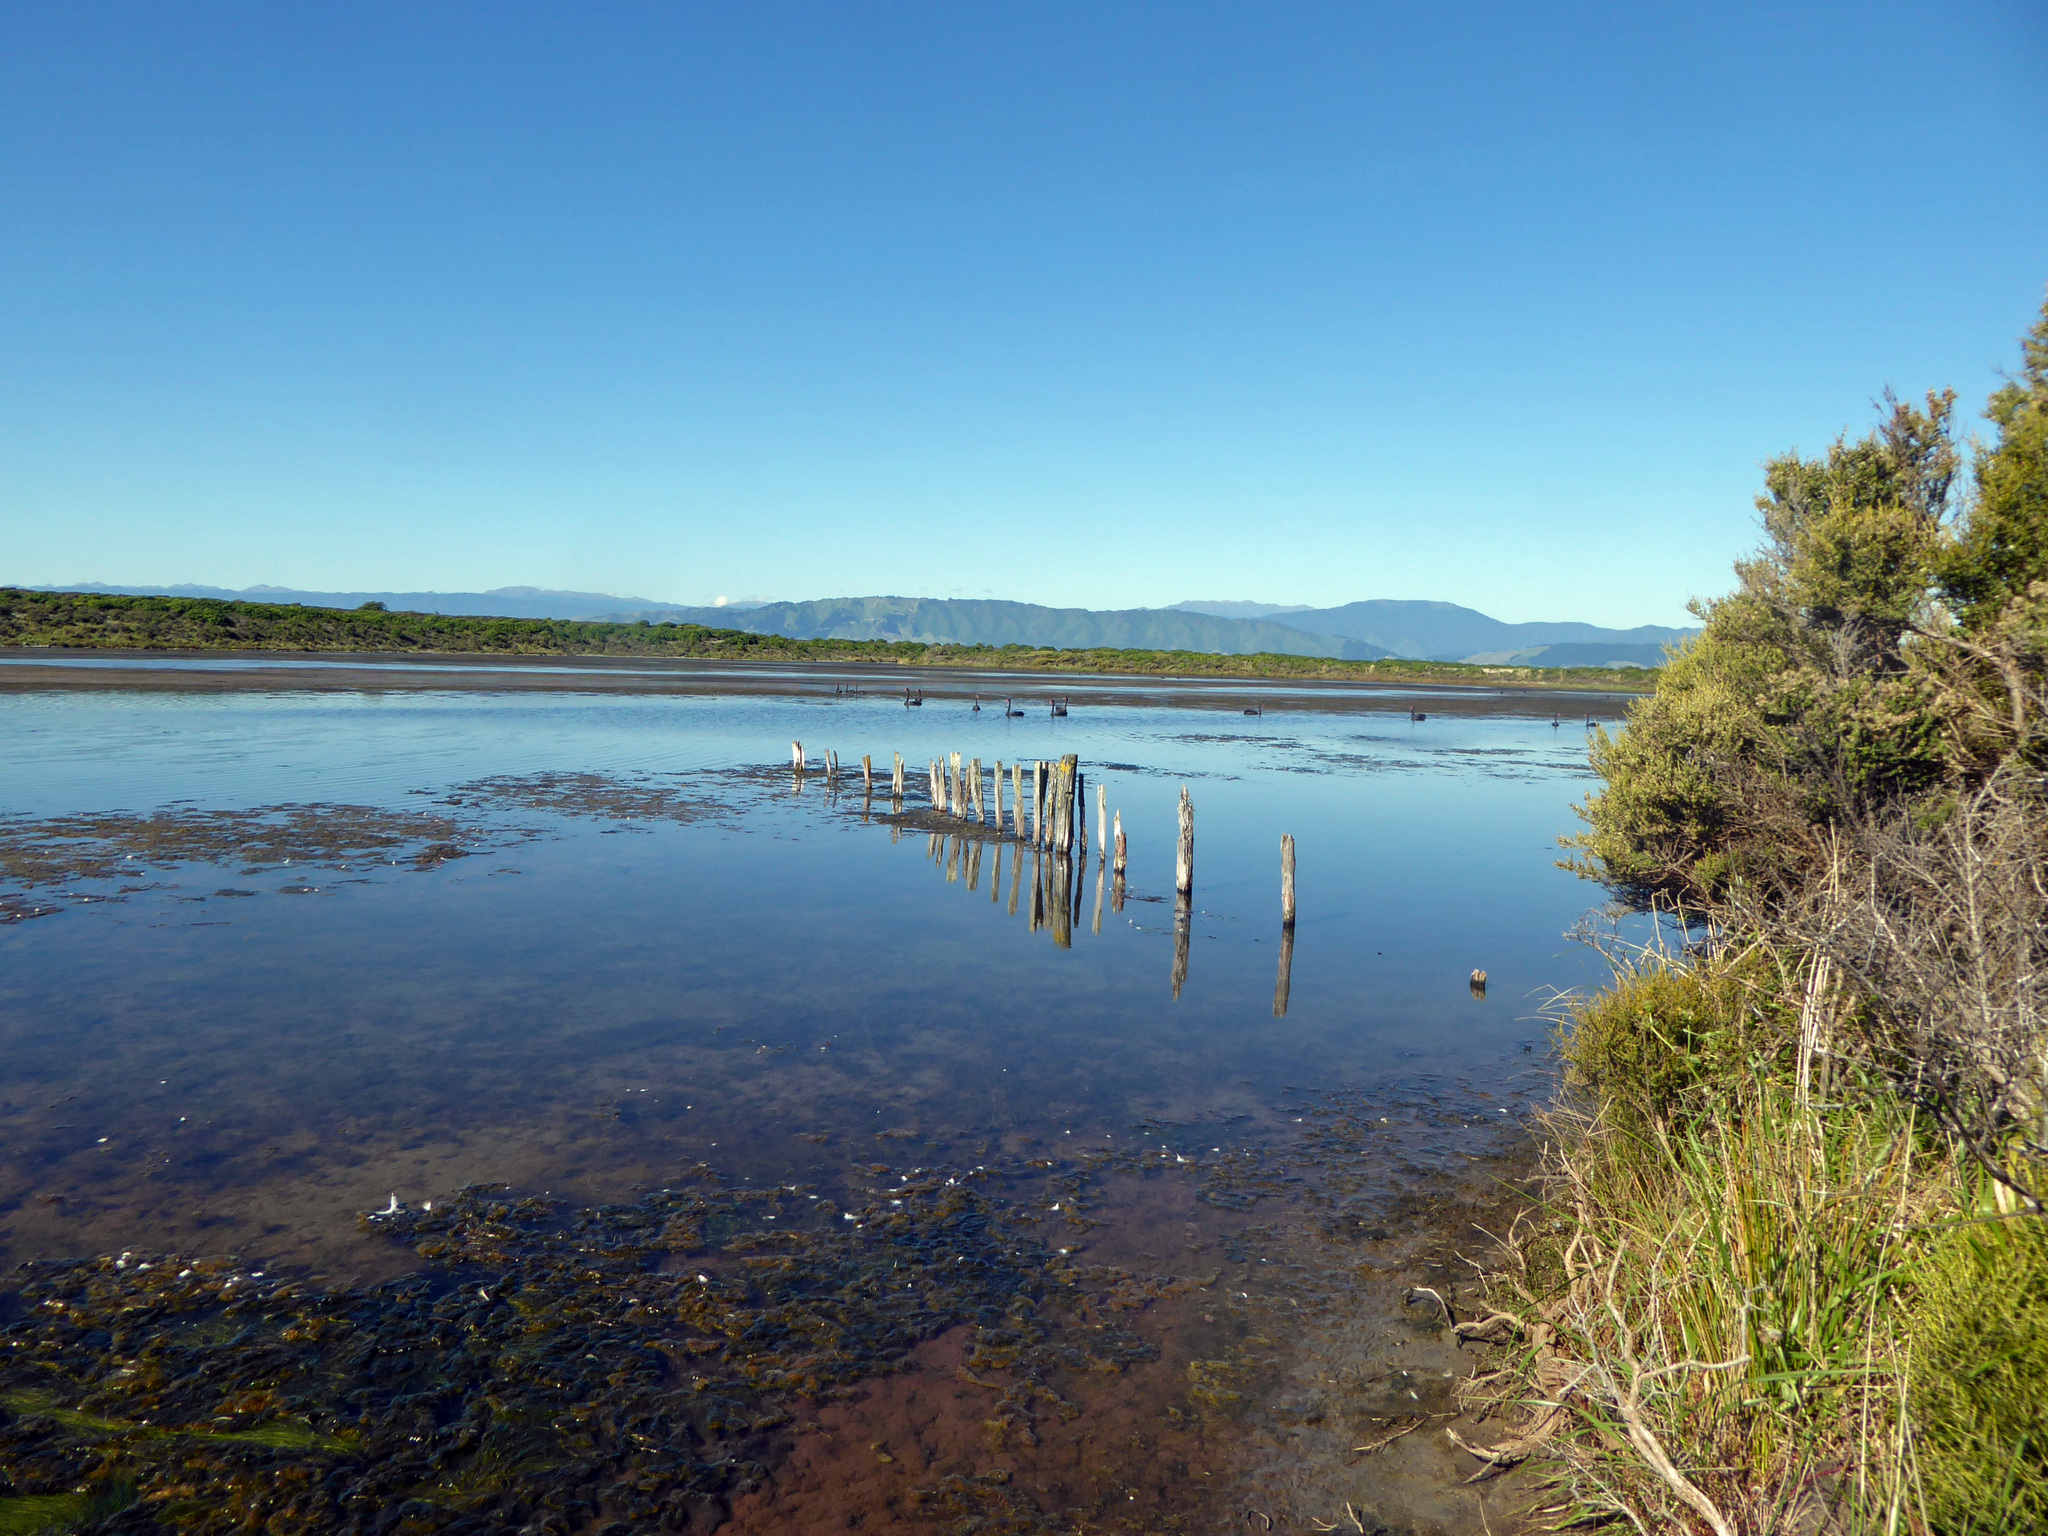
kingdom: Plantae
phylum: Tracheophyta
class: Liliopsida
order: Alismatales
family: Ruppiaceae
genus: Ruppia
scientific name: Ruppia megacarpa
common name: Large-fruit seatassel
